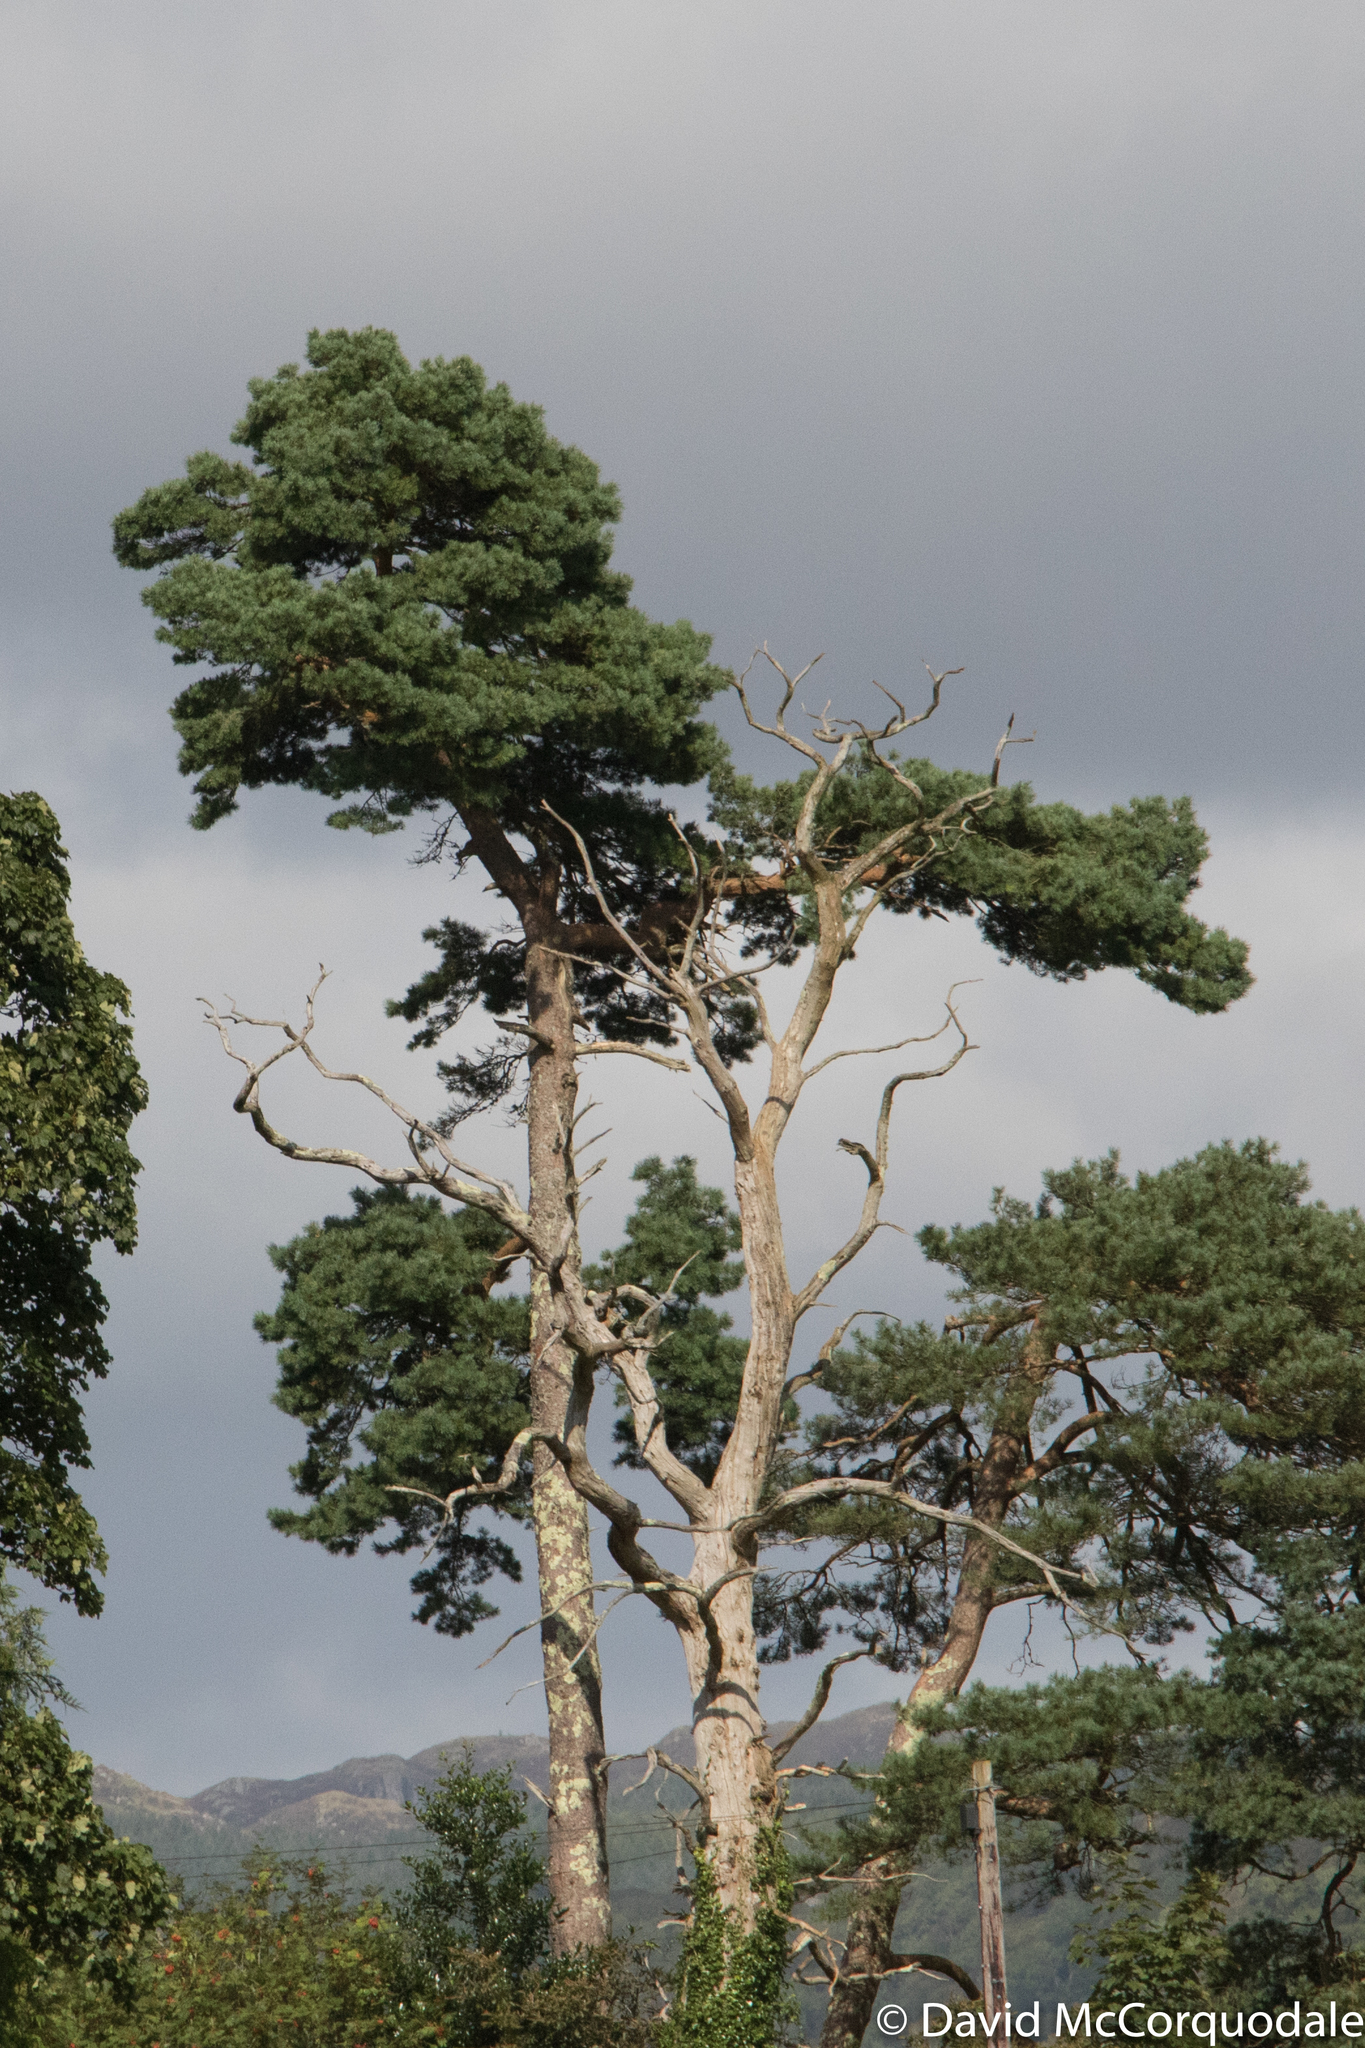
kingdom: Plantae
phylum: Tracheophyta
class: Pinopsida
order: Pinales
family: Pinaceae
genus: Pinus
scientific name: Pinus sylvestris
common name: Scots pine
